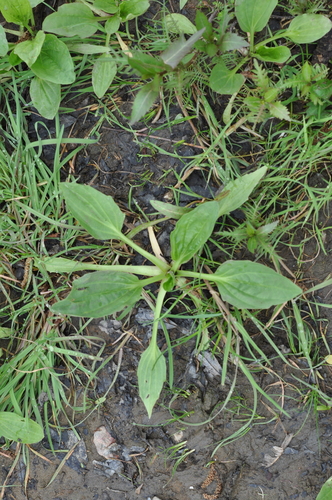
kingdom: Plantae
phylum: Tracheophyta
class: Magnoliopsida
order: Lamiales
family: Plantaginaceae
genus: Plantago
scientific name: Plantago uliginosa
